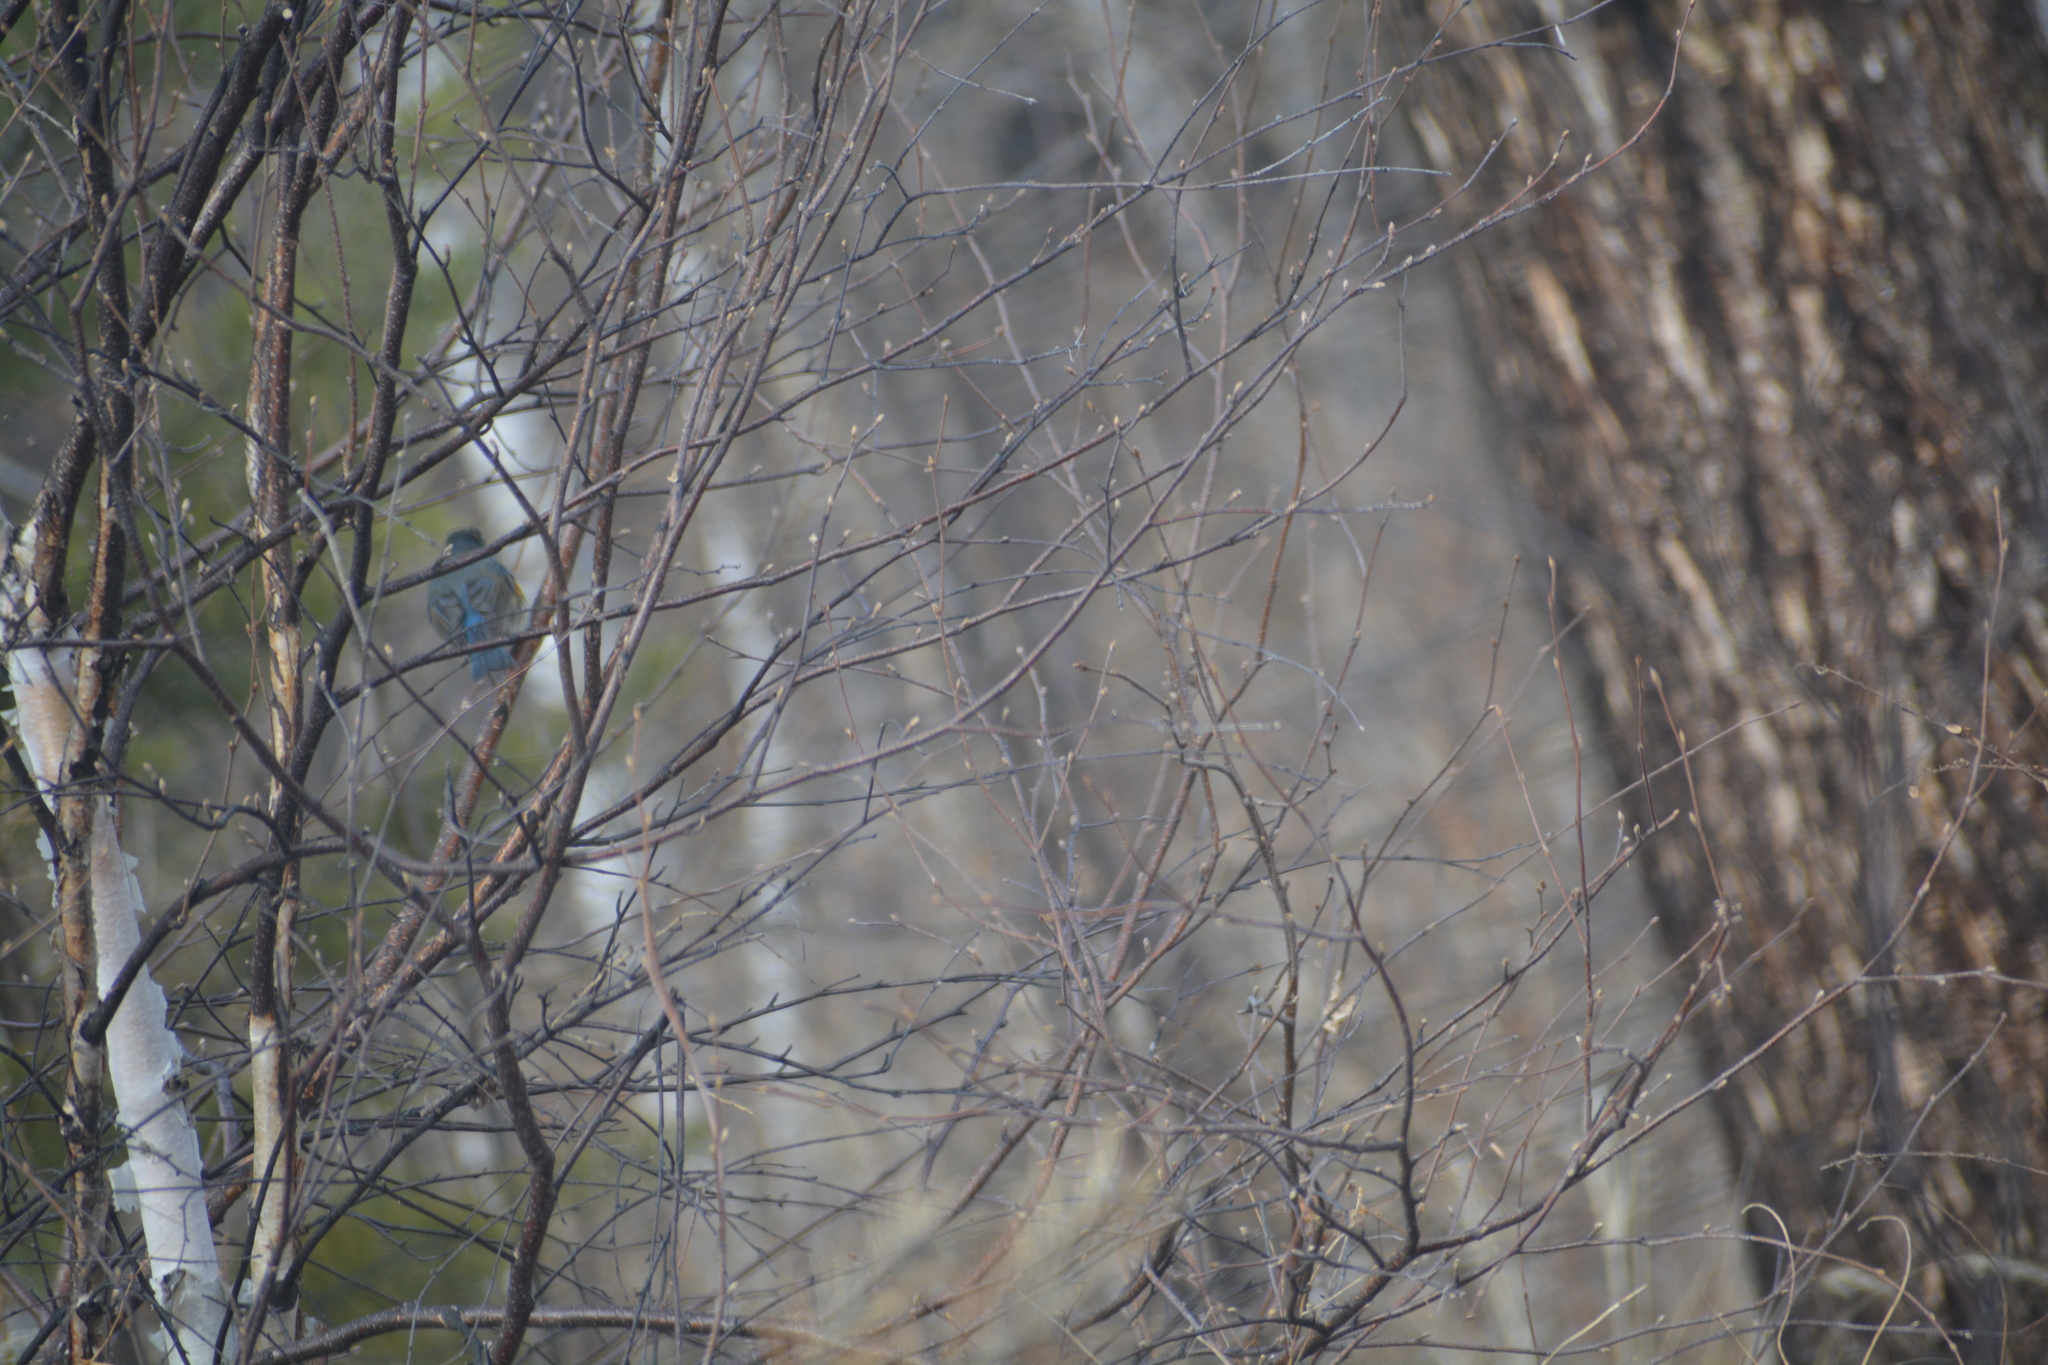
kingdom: Animalia
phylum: Chordata
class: Aves
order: Passeriformes
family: Muscicapidae
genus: Tarsiger
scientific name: Tarsiger cyanurus
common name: Red-flanked bluetail
